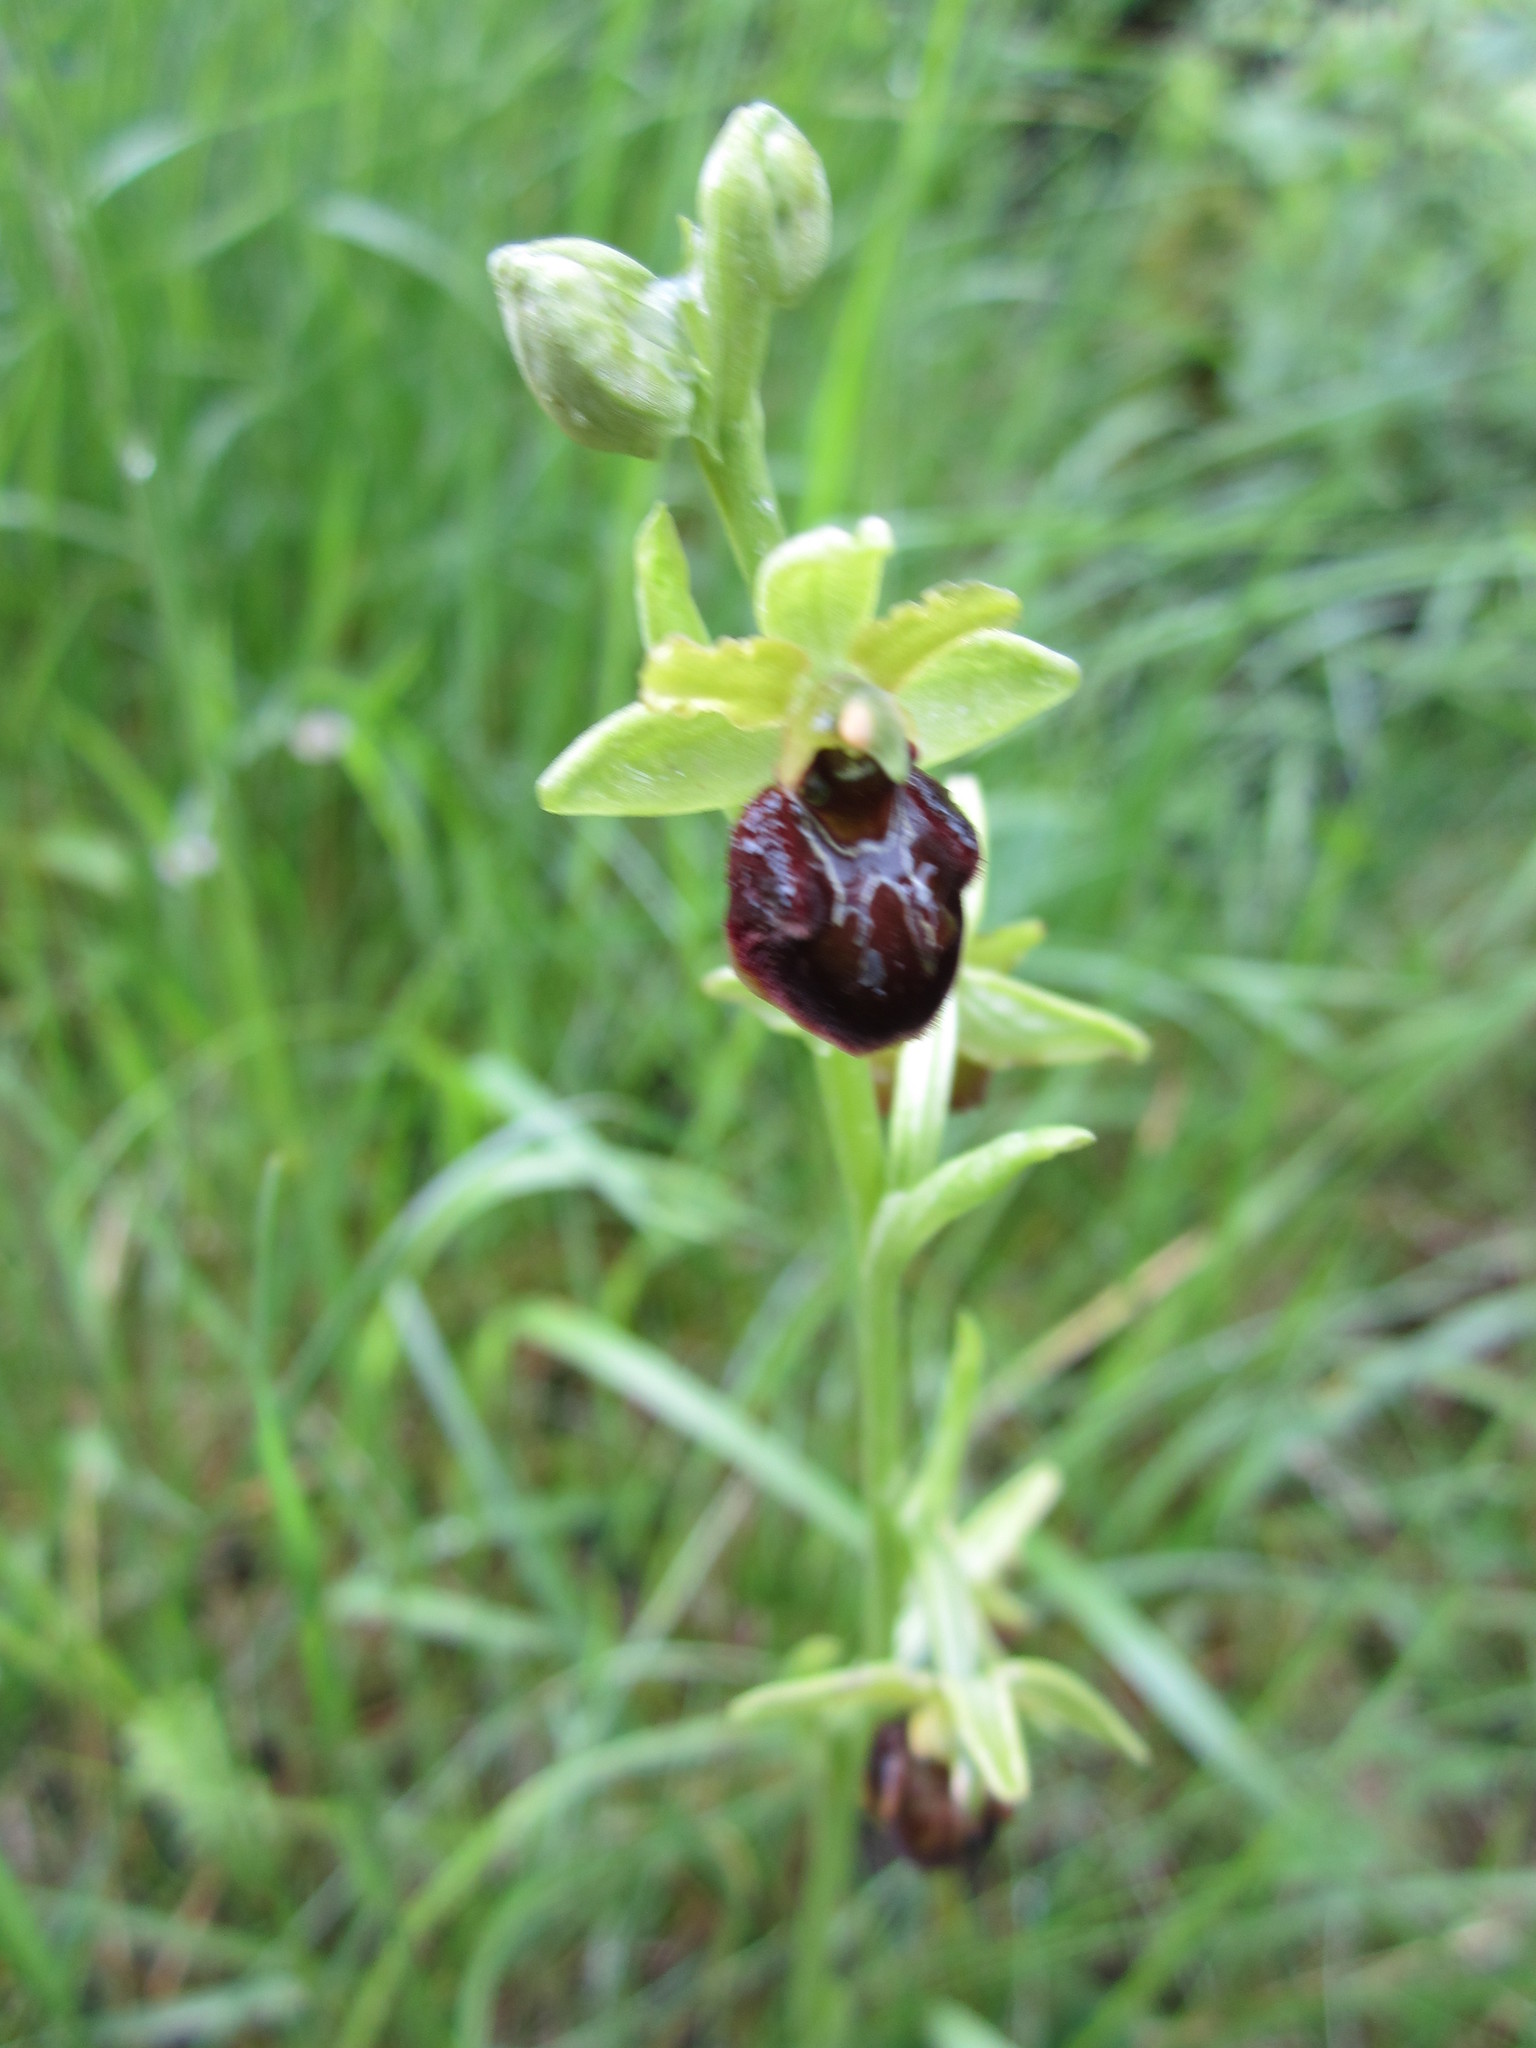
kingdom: Plantae
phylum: Tracheophyta
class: Liliopsida
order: Asparagales
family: Orchidaceae
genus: Ophrys
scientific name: Ophrys sphegodes
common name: Early spider-orchid
